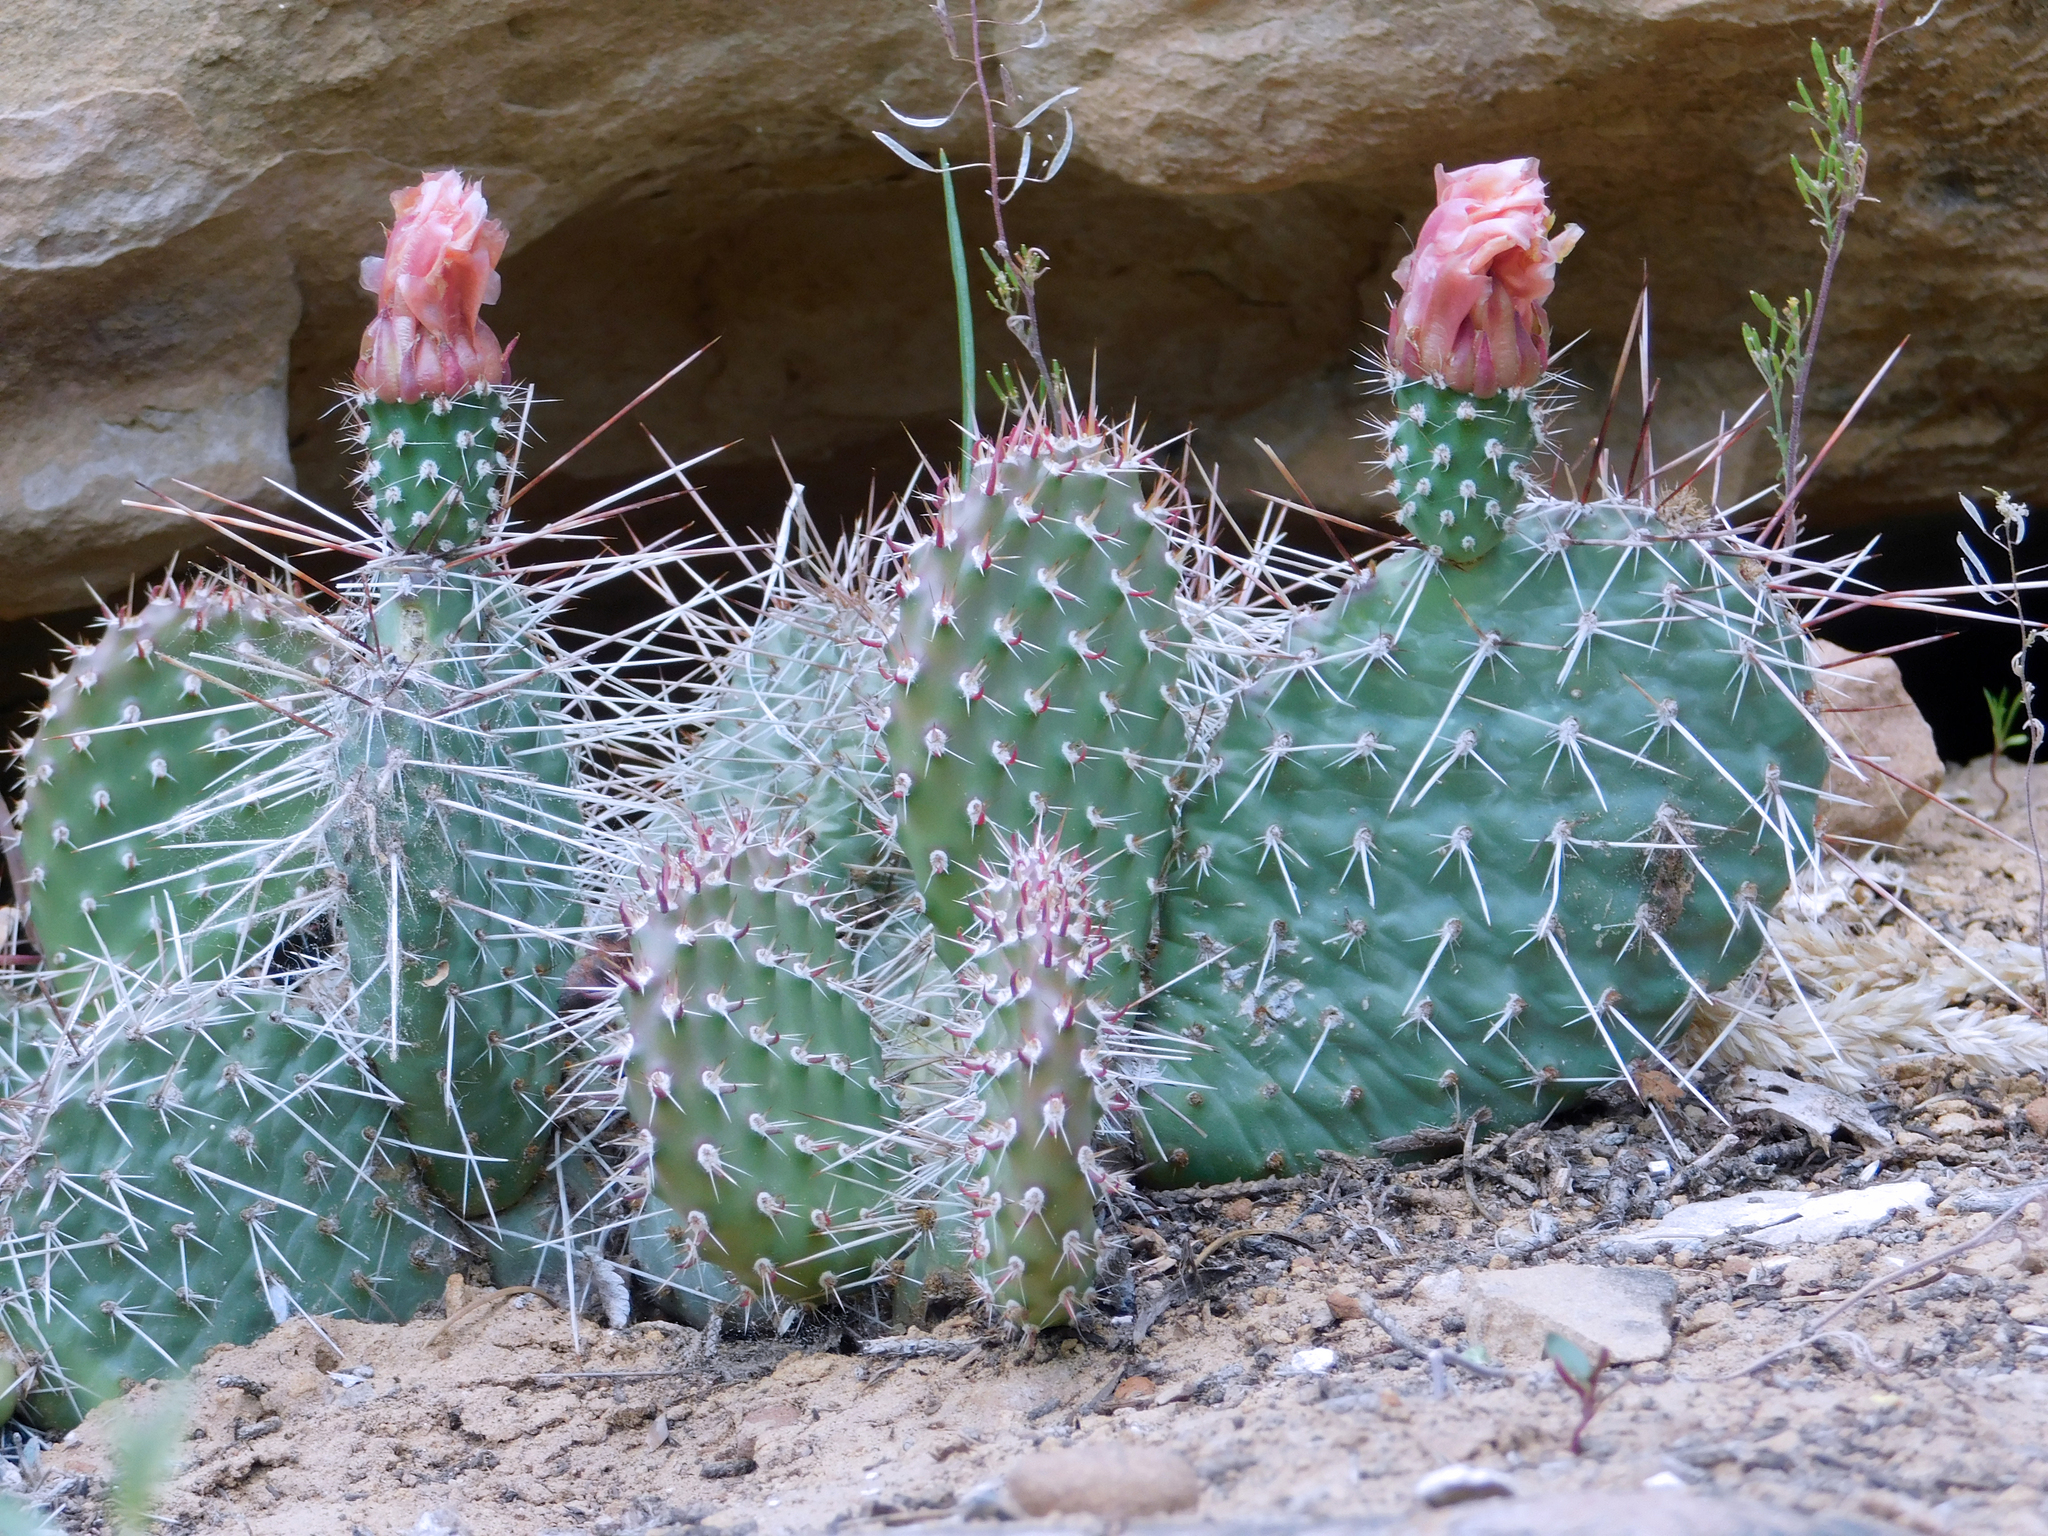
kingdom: Plantae
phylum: Tracheophyta
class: Magnoliopsida
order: Caryophyllales
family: Cactaceae
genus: Opuntia
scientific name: Opuntia polyacantha
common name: Plains prickly-pear
